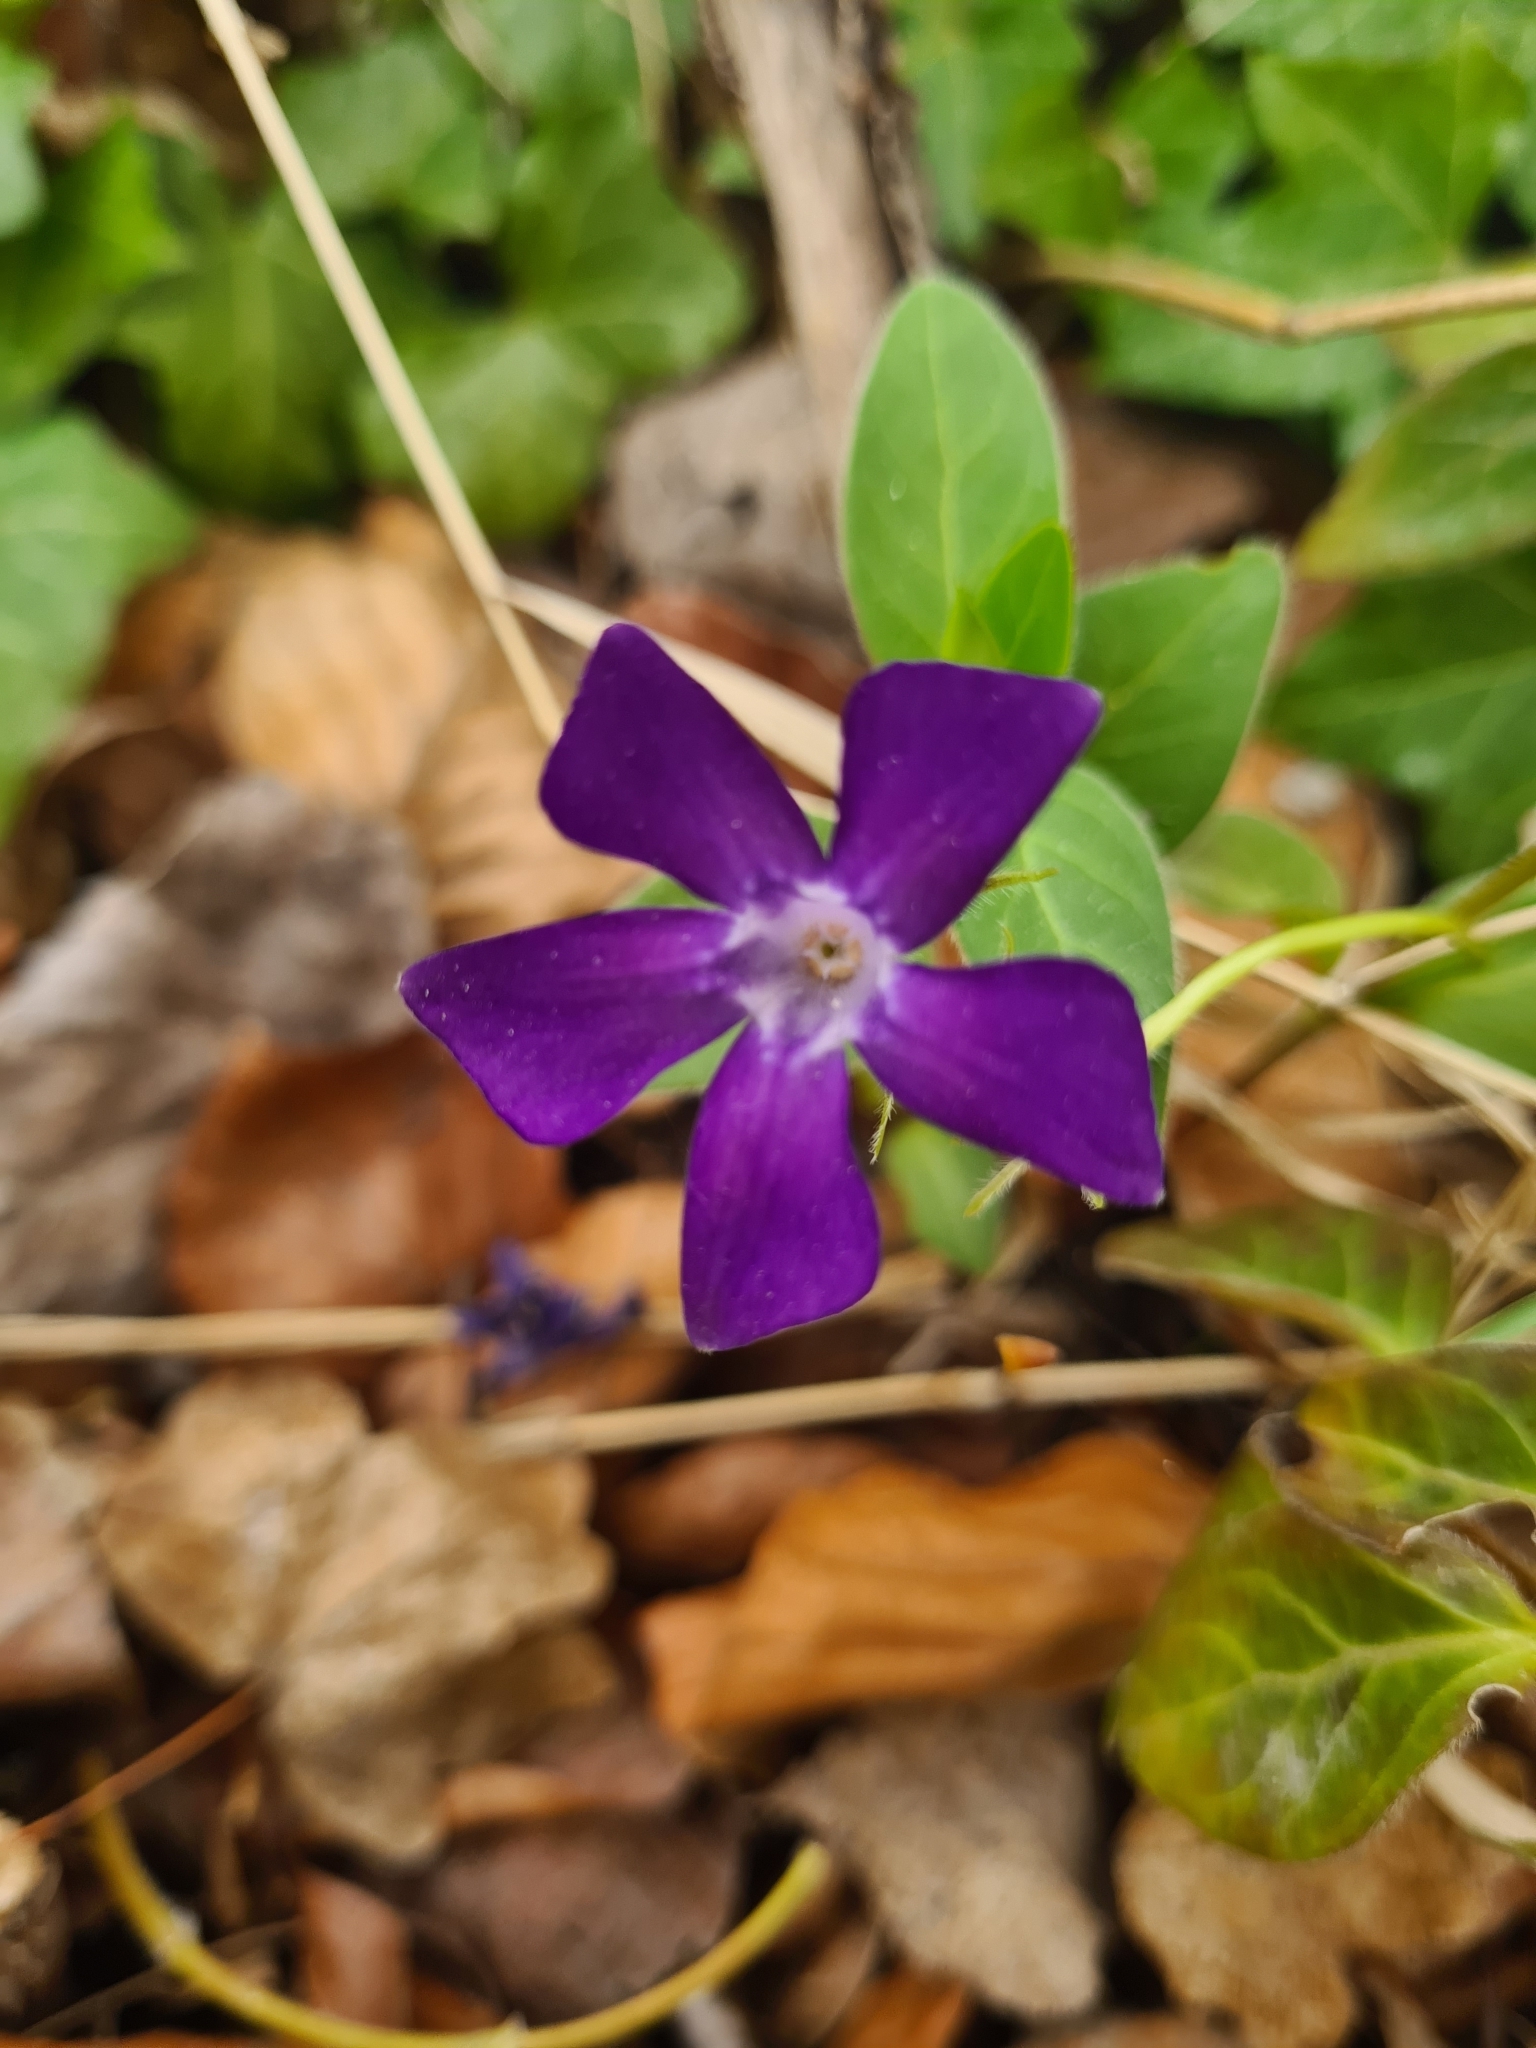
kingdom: Plantae
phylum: Tracheophyta
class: Magnoliopsida
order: Gentianales
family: Apocynaceae
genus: Vinca
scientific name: Vinca major
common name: Greater periwinkle
